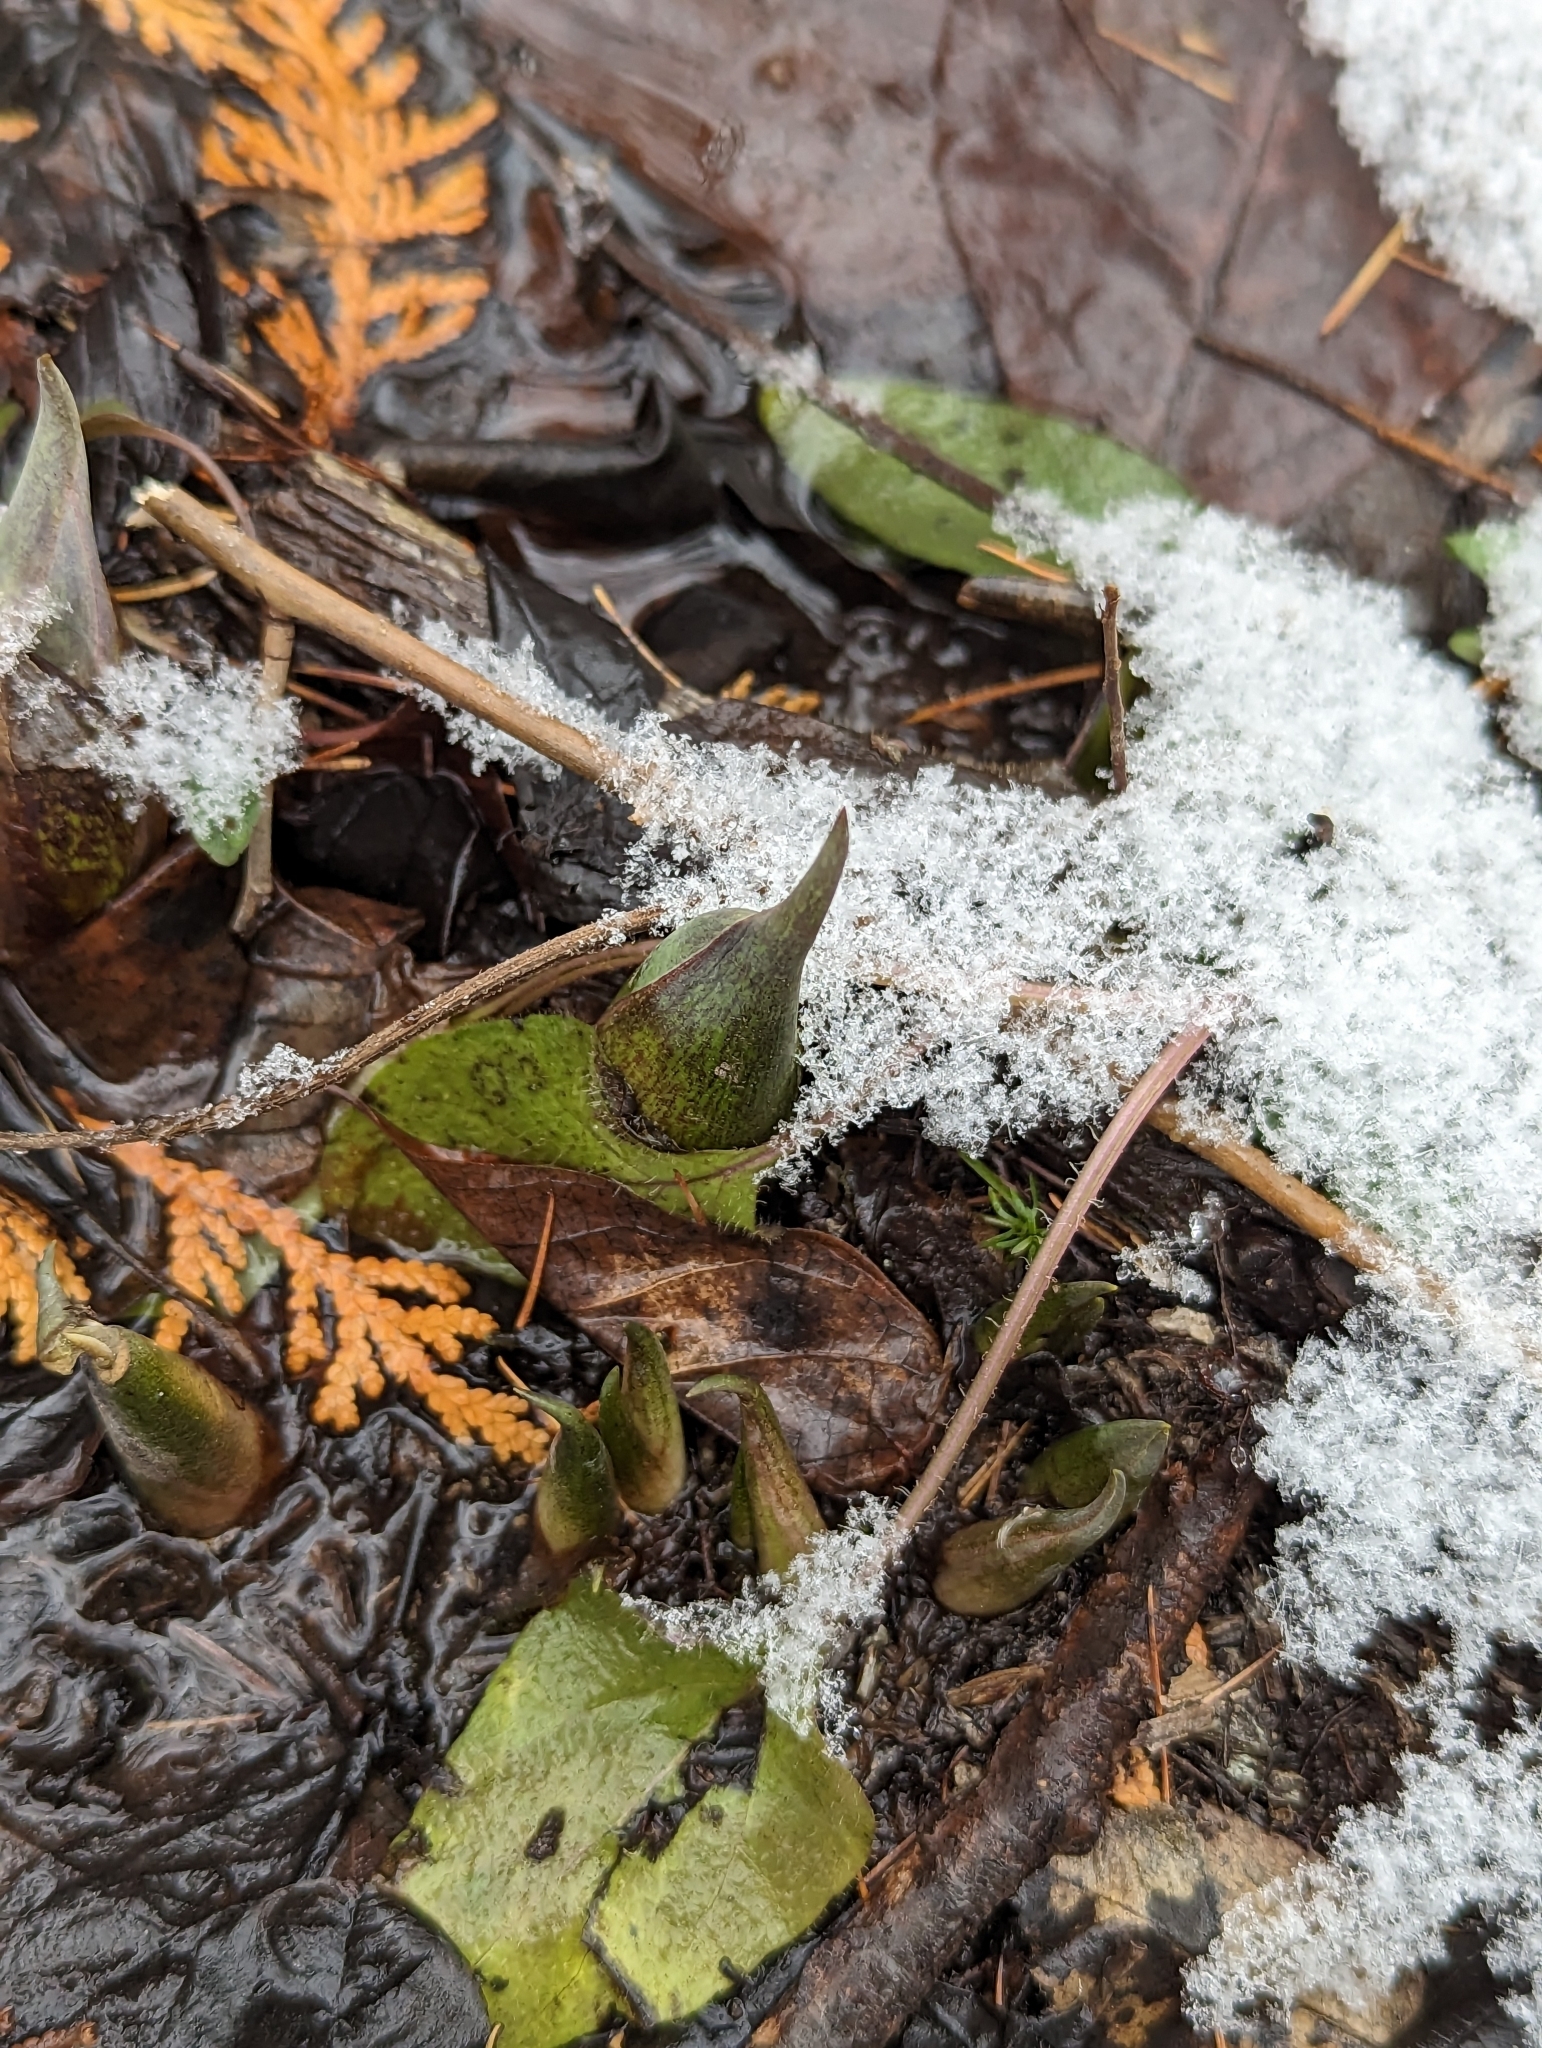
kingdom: Plantae
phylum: Tracheophyta
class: Liliopsida
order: Alismatales
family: Araceae
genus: Symplocarpus
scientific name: Symplocarpus foetidus
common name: Eastern skunk cabbage
